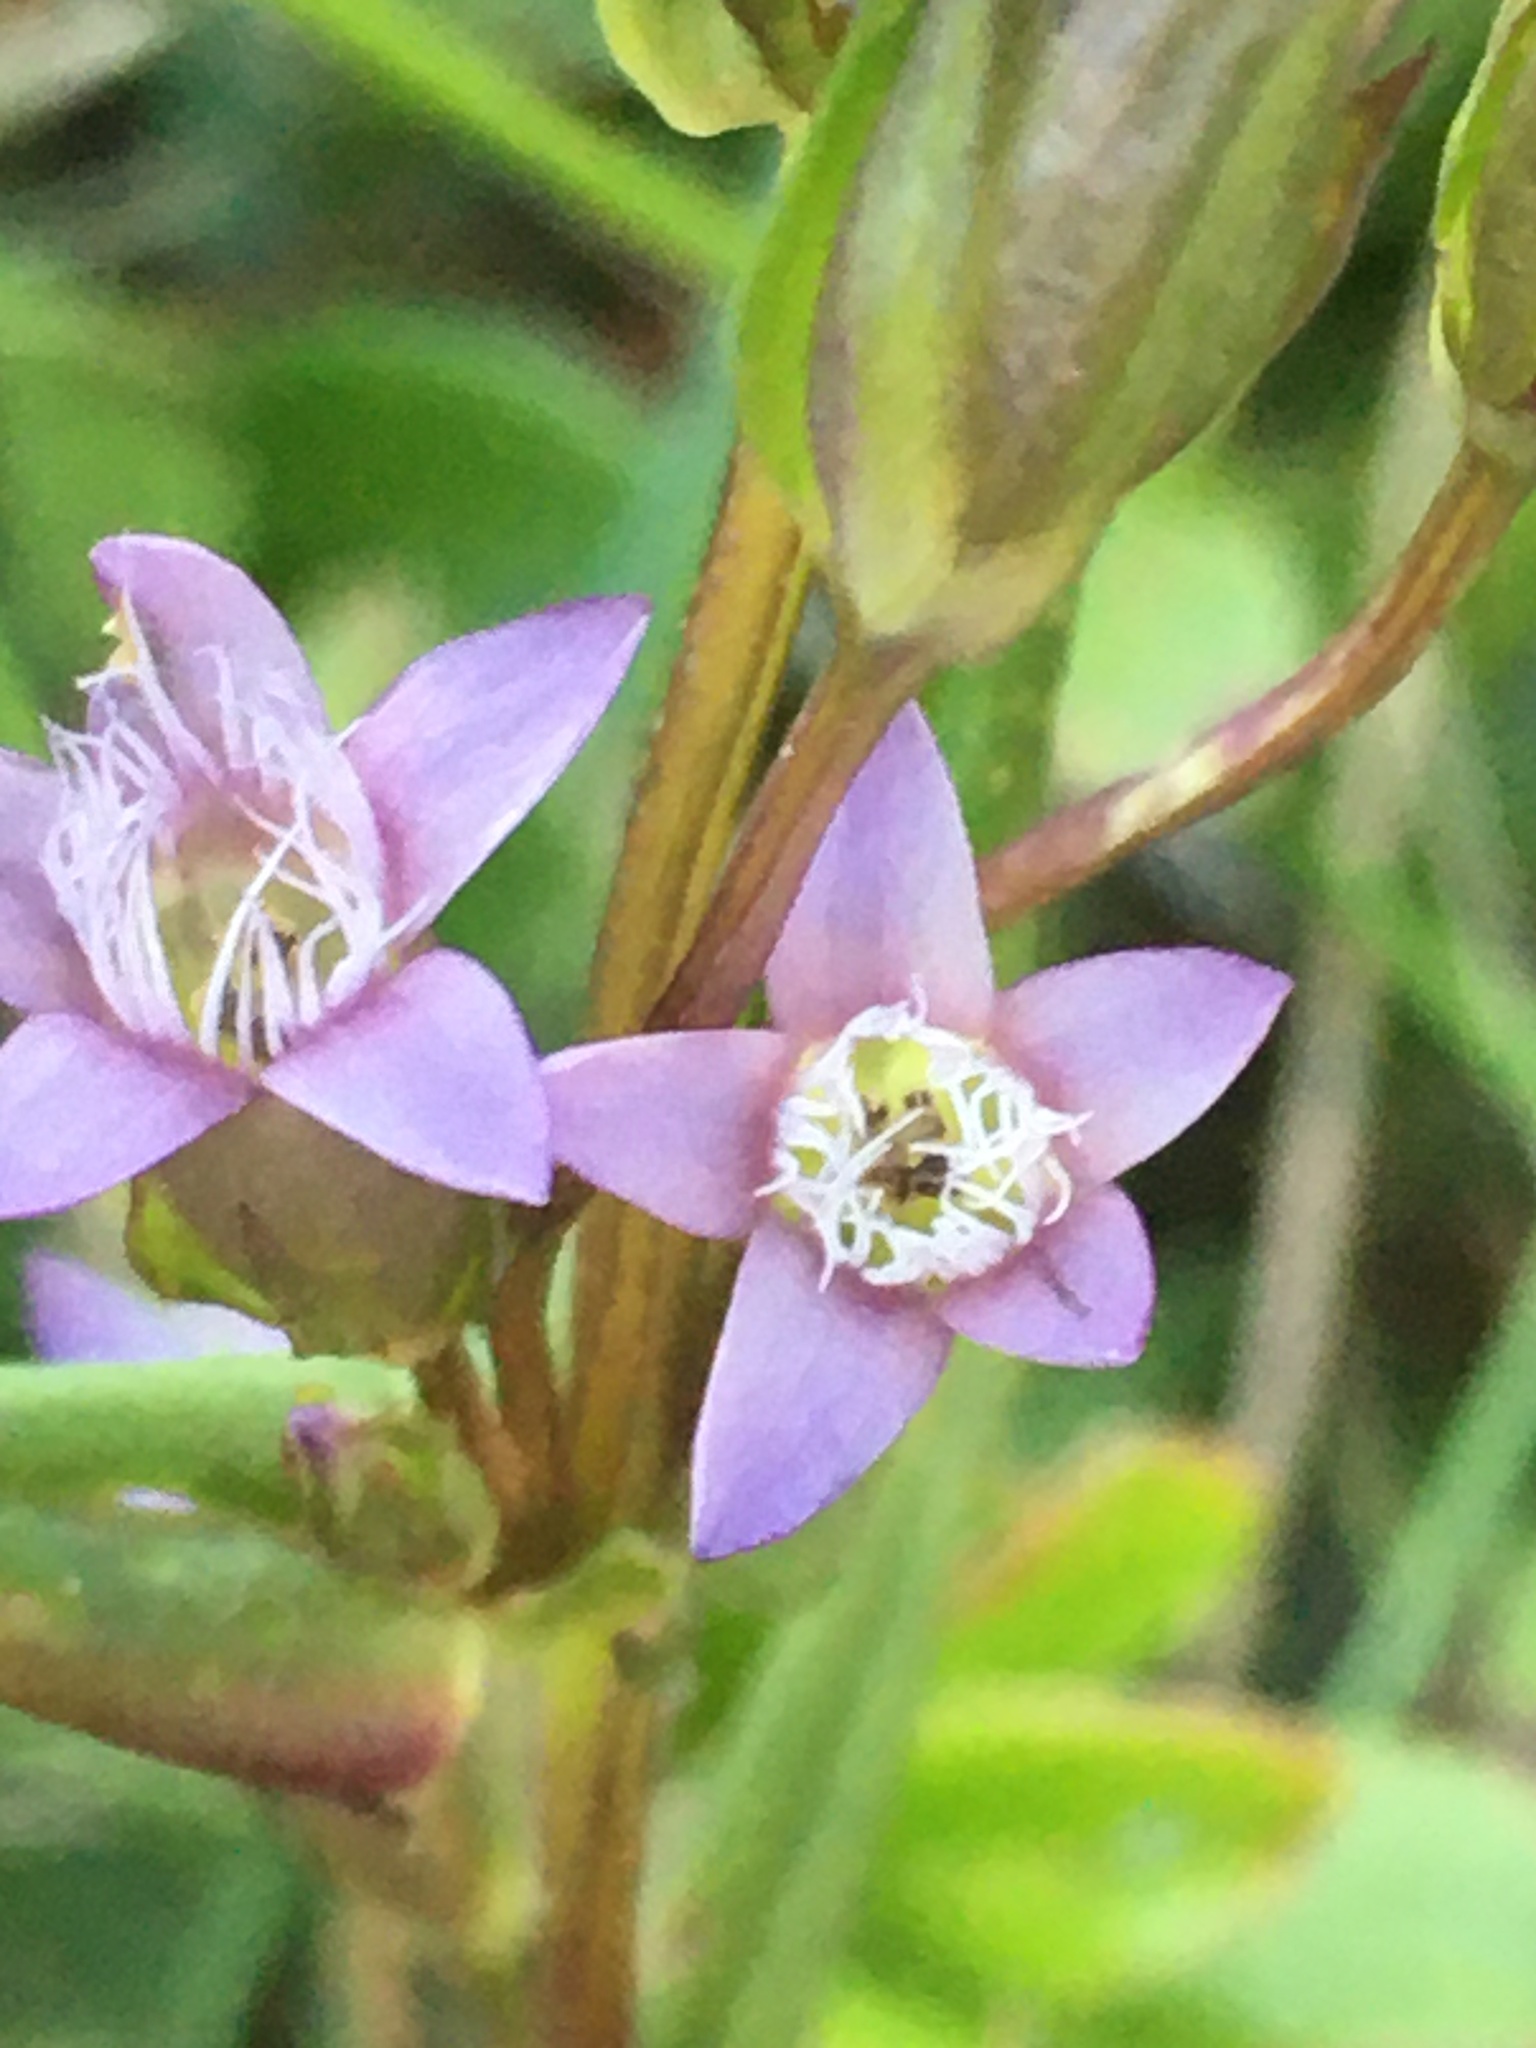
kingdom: Plantae
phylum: Tracheophyta
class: Magnoliopsida
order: Gentianales
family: Gentianaceae
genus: Gentianella
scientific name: Gentianella amarella
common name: Autumn gentian
